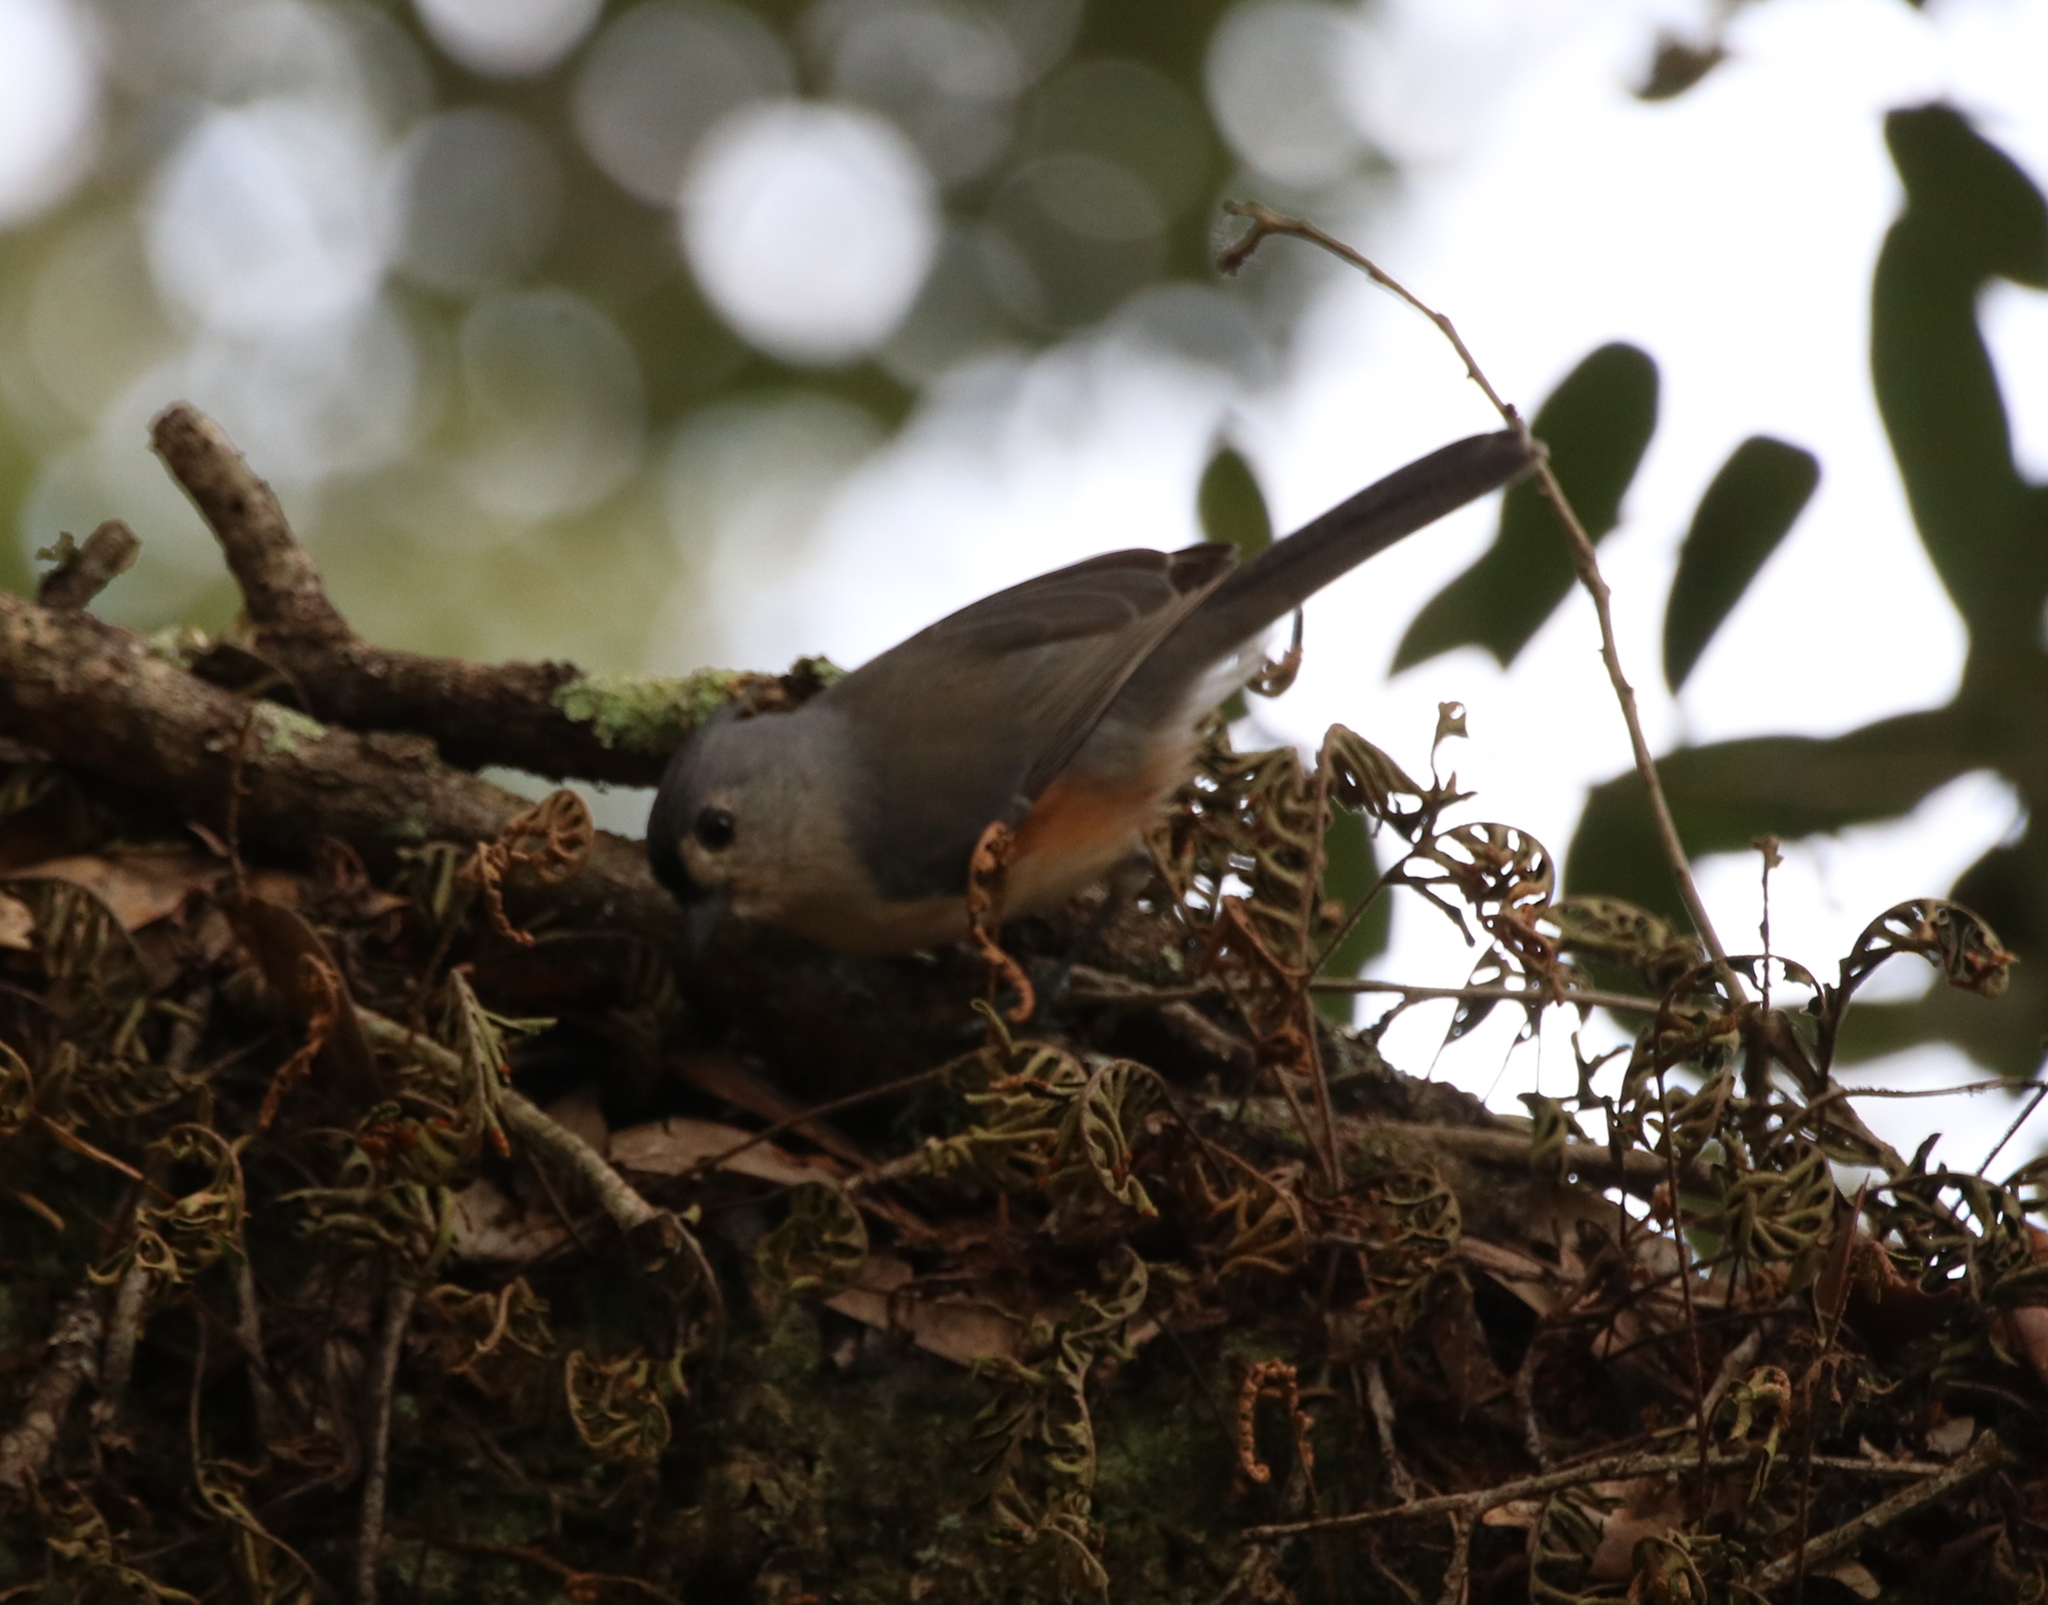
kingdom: Animalia
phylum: Chordata
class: Aves
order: Passeriformes
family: Paridae
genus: Baeolophus
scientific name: Baeolophus bicolor
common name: Tufted titmouse
